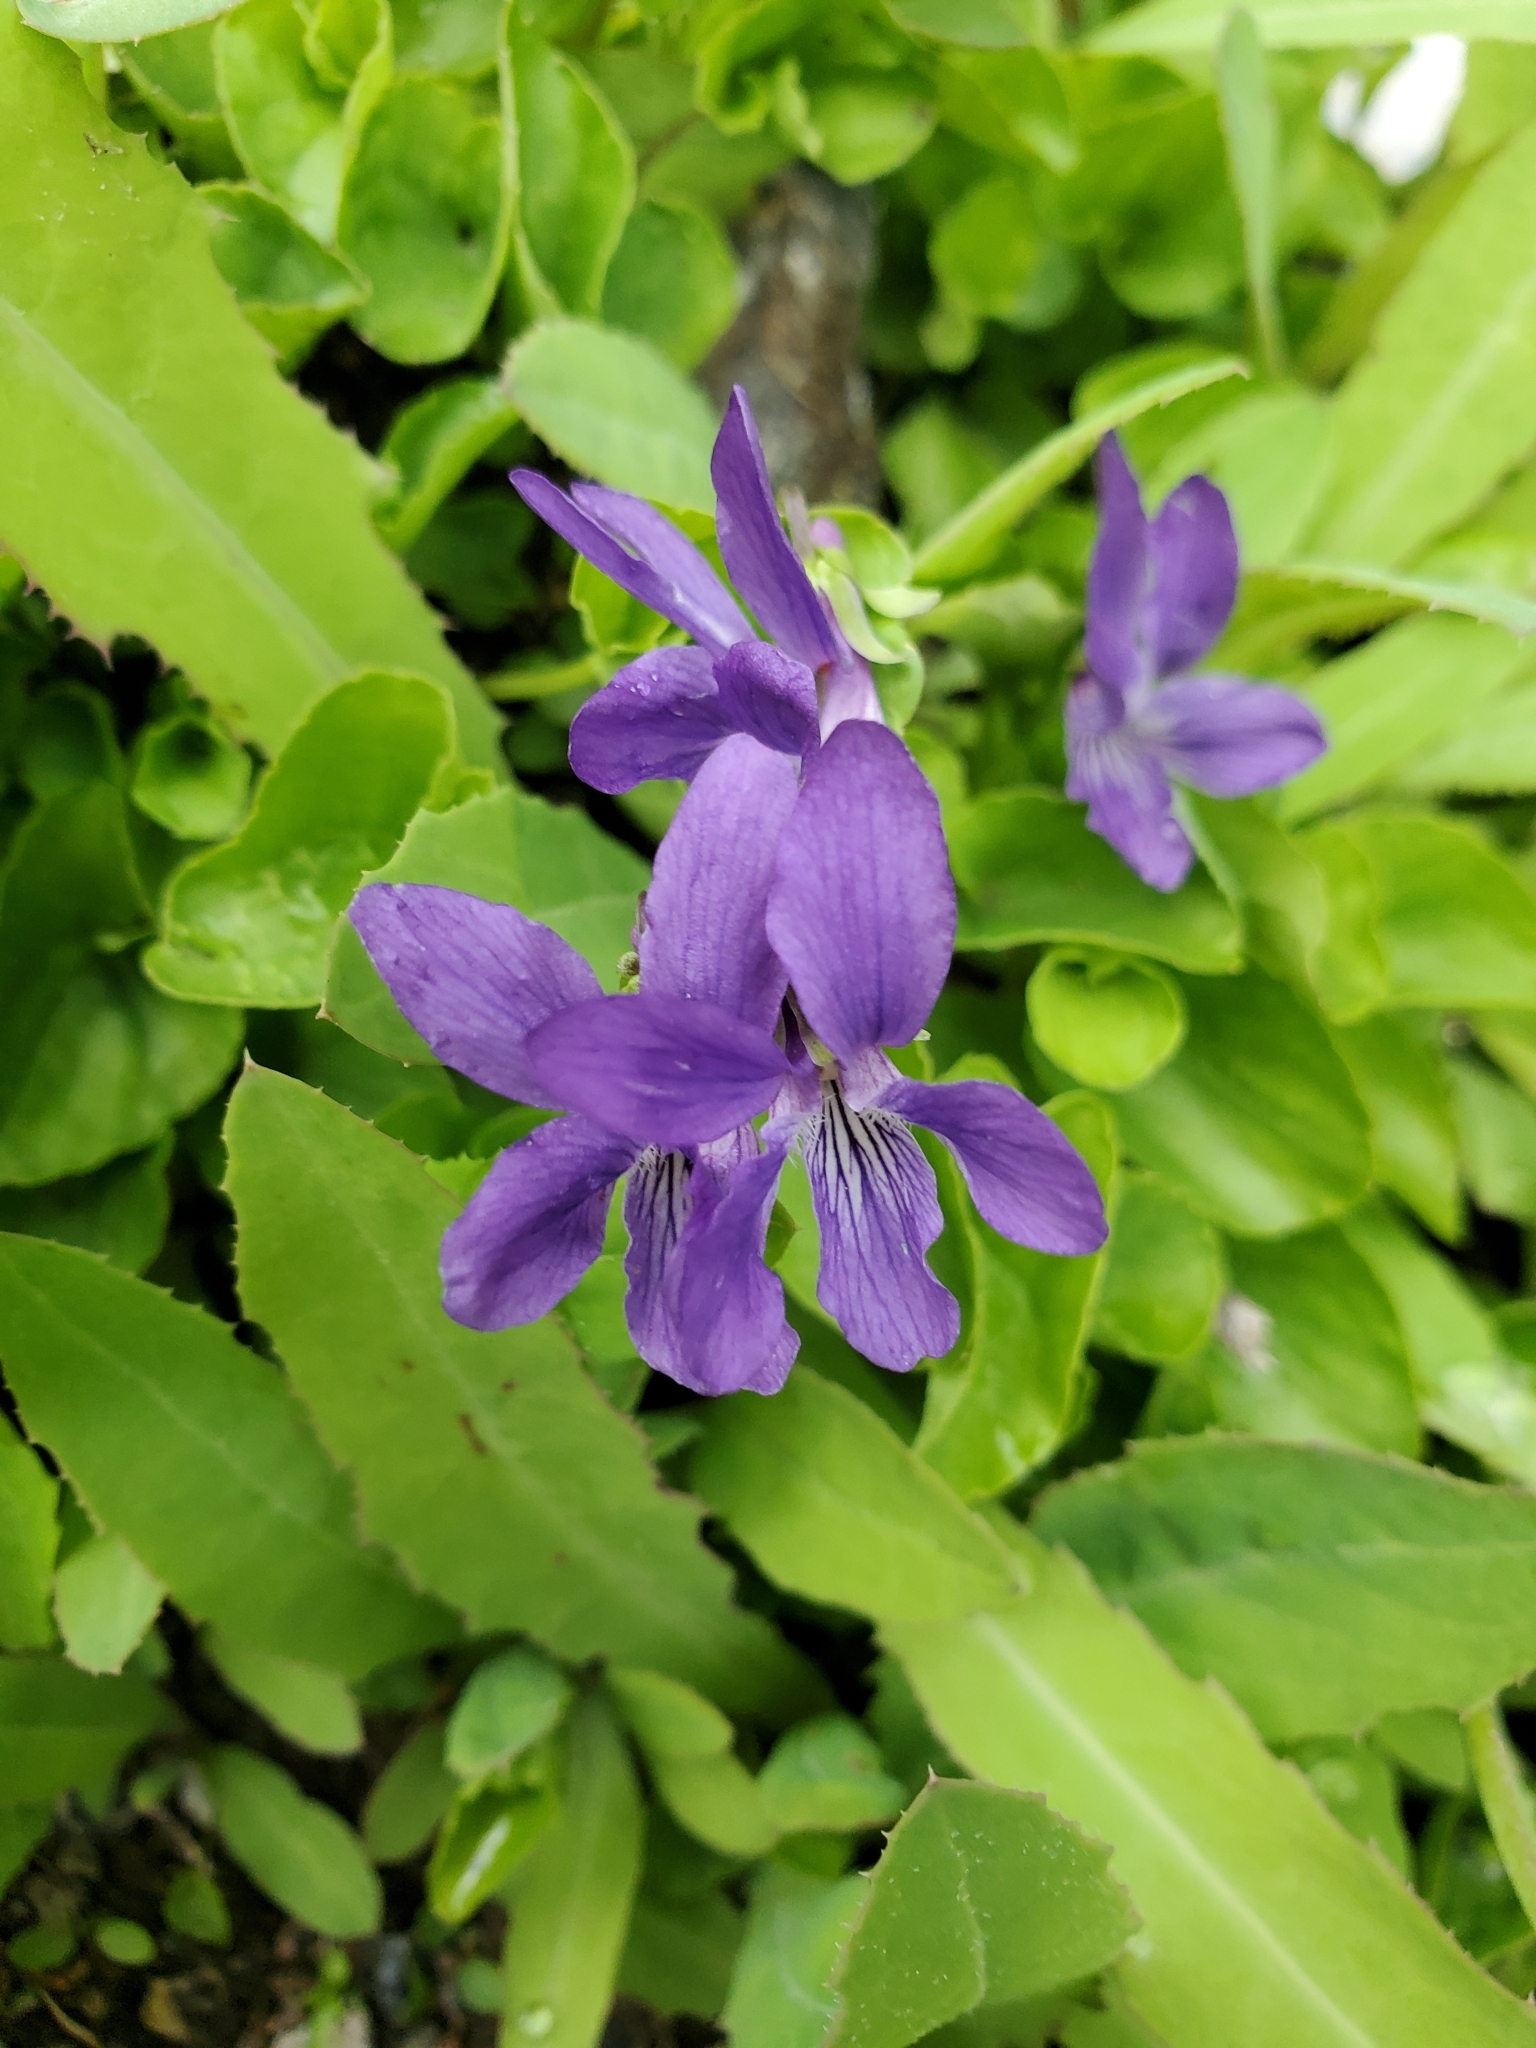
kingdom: Plantae
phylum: Tracheophyta
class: Magnoliopsida
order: Malpighiales
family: Violaceae
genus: Viola
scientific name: Viola nephrophylla
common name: Blue meadow violet
